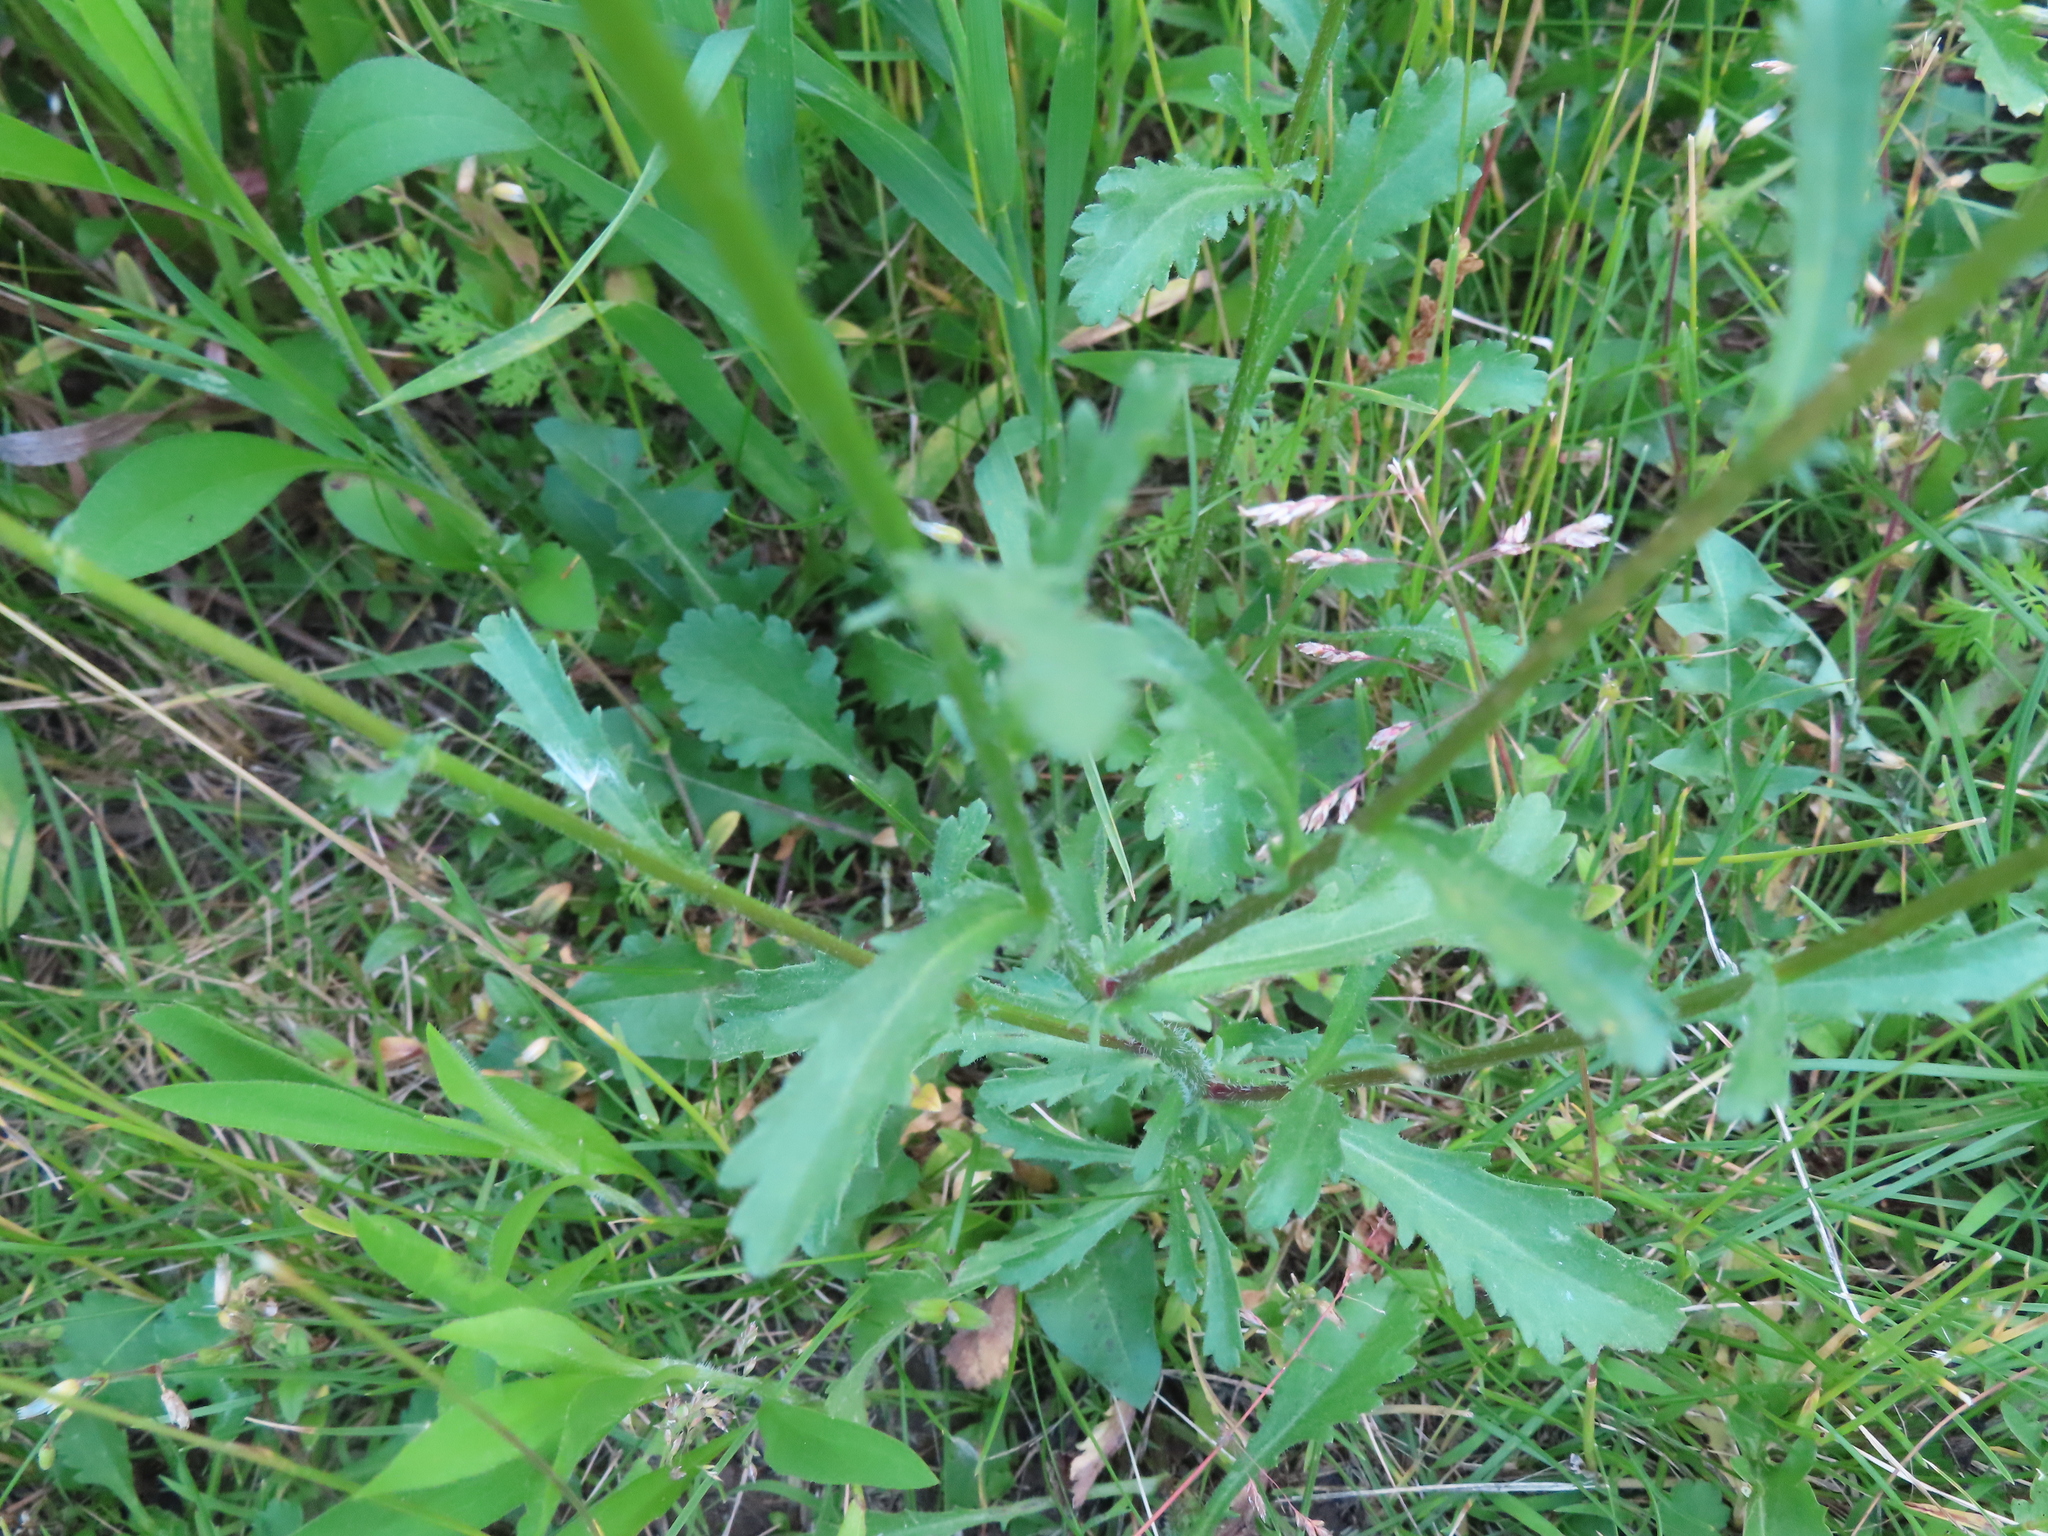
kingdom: Plantae
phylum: Tracheophyta
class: Magnoliopsida
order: Asterales
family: Asteraceae
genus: Leucanthemum
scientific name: Leucanthemum vulgare
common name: Oxeye daisy
